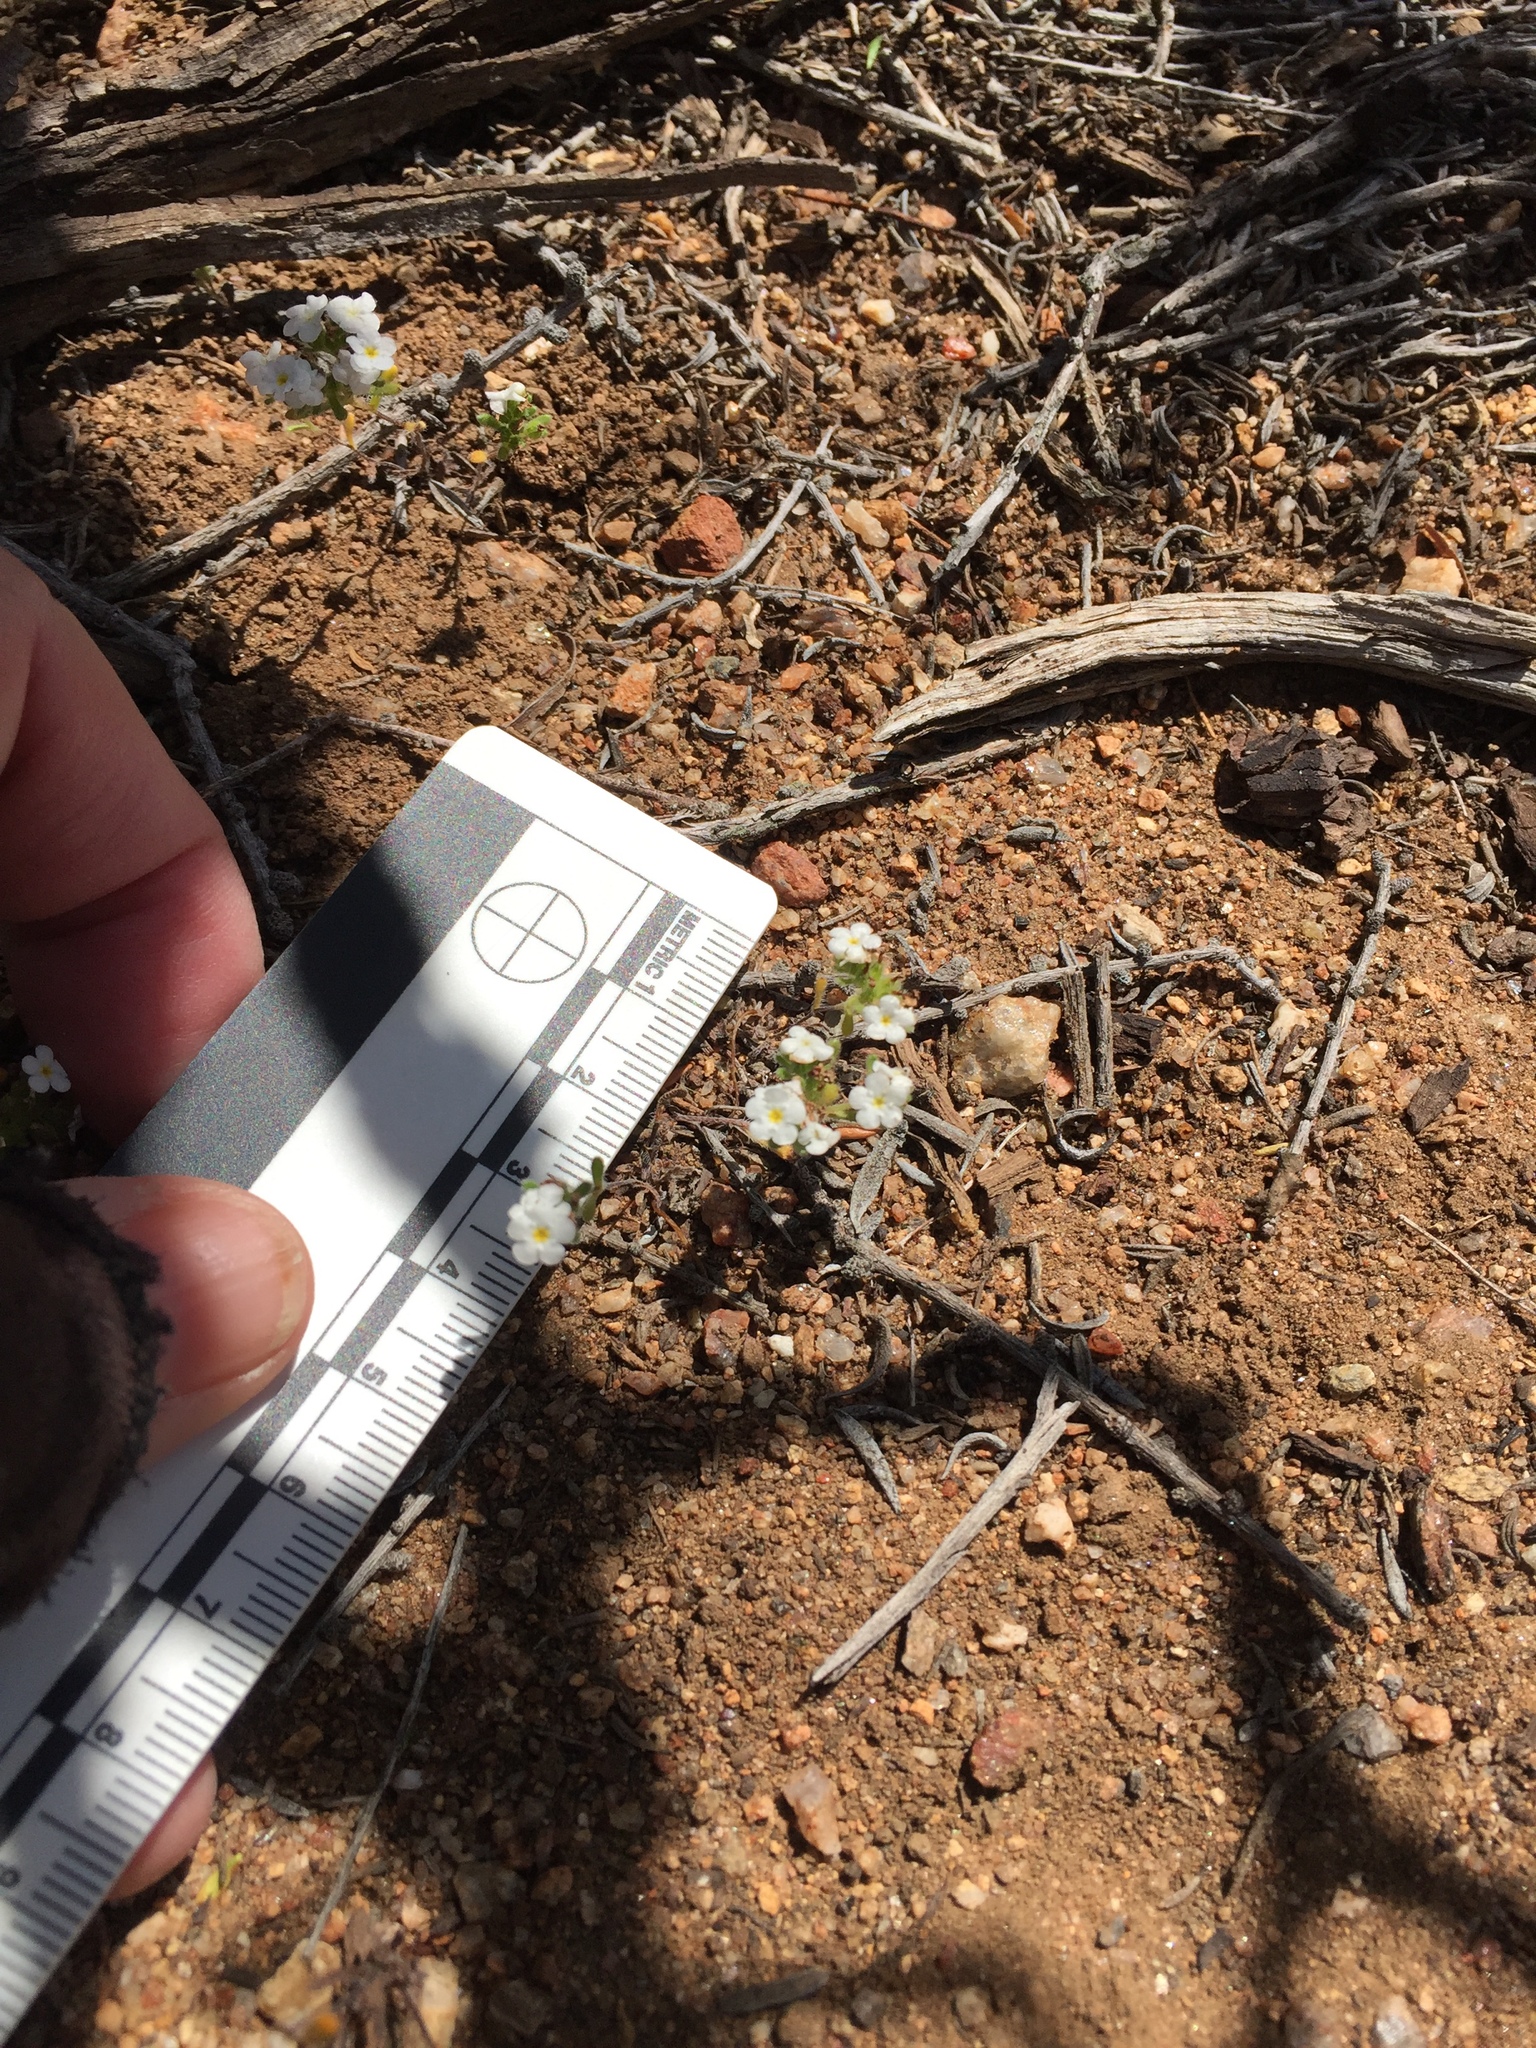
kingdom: Plantae
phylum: Tracheophyta
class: Magnoliopsida
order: Boraginales
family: Boraginaceae
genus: Eremocarya
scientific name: Eremocarya lepida
